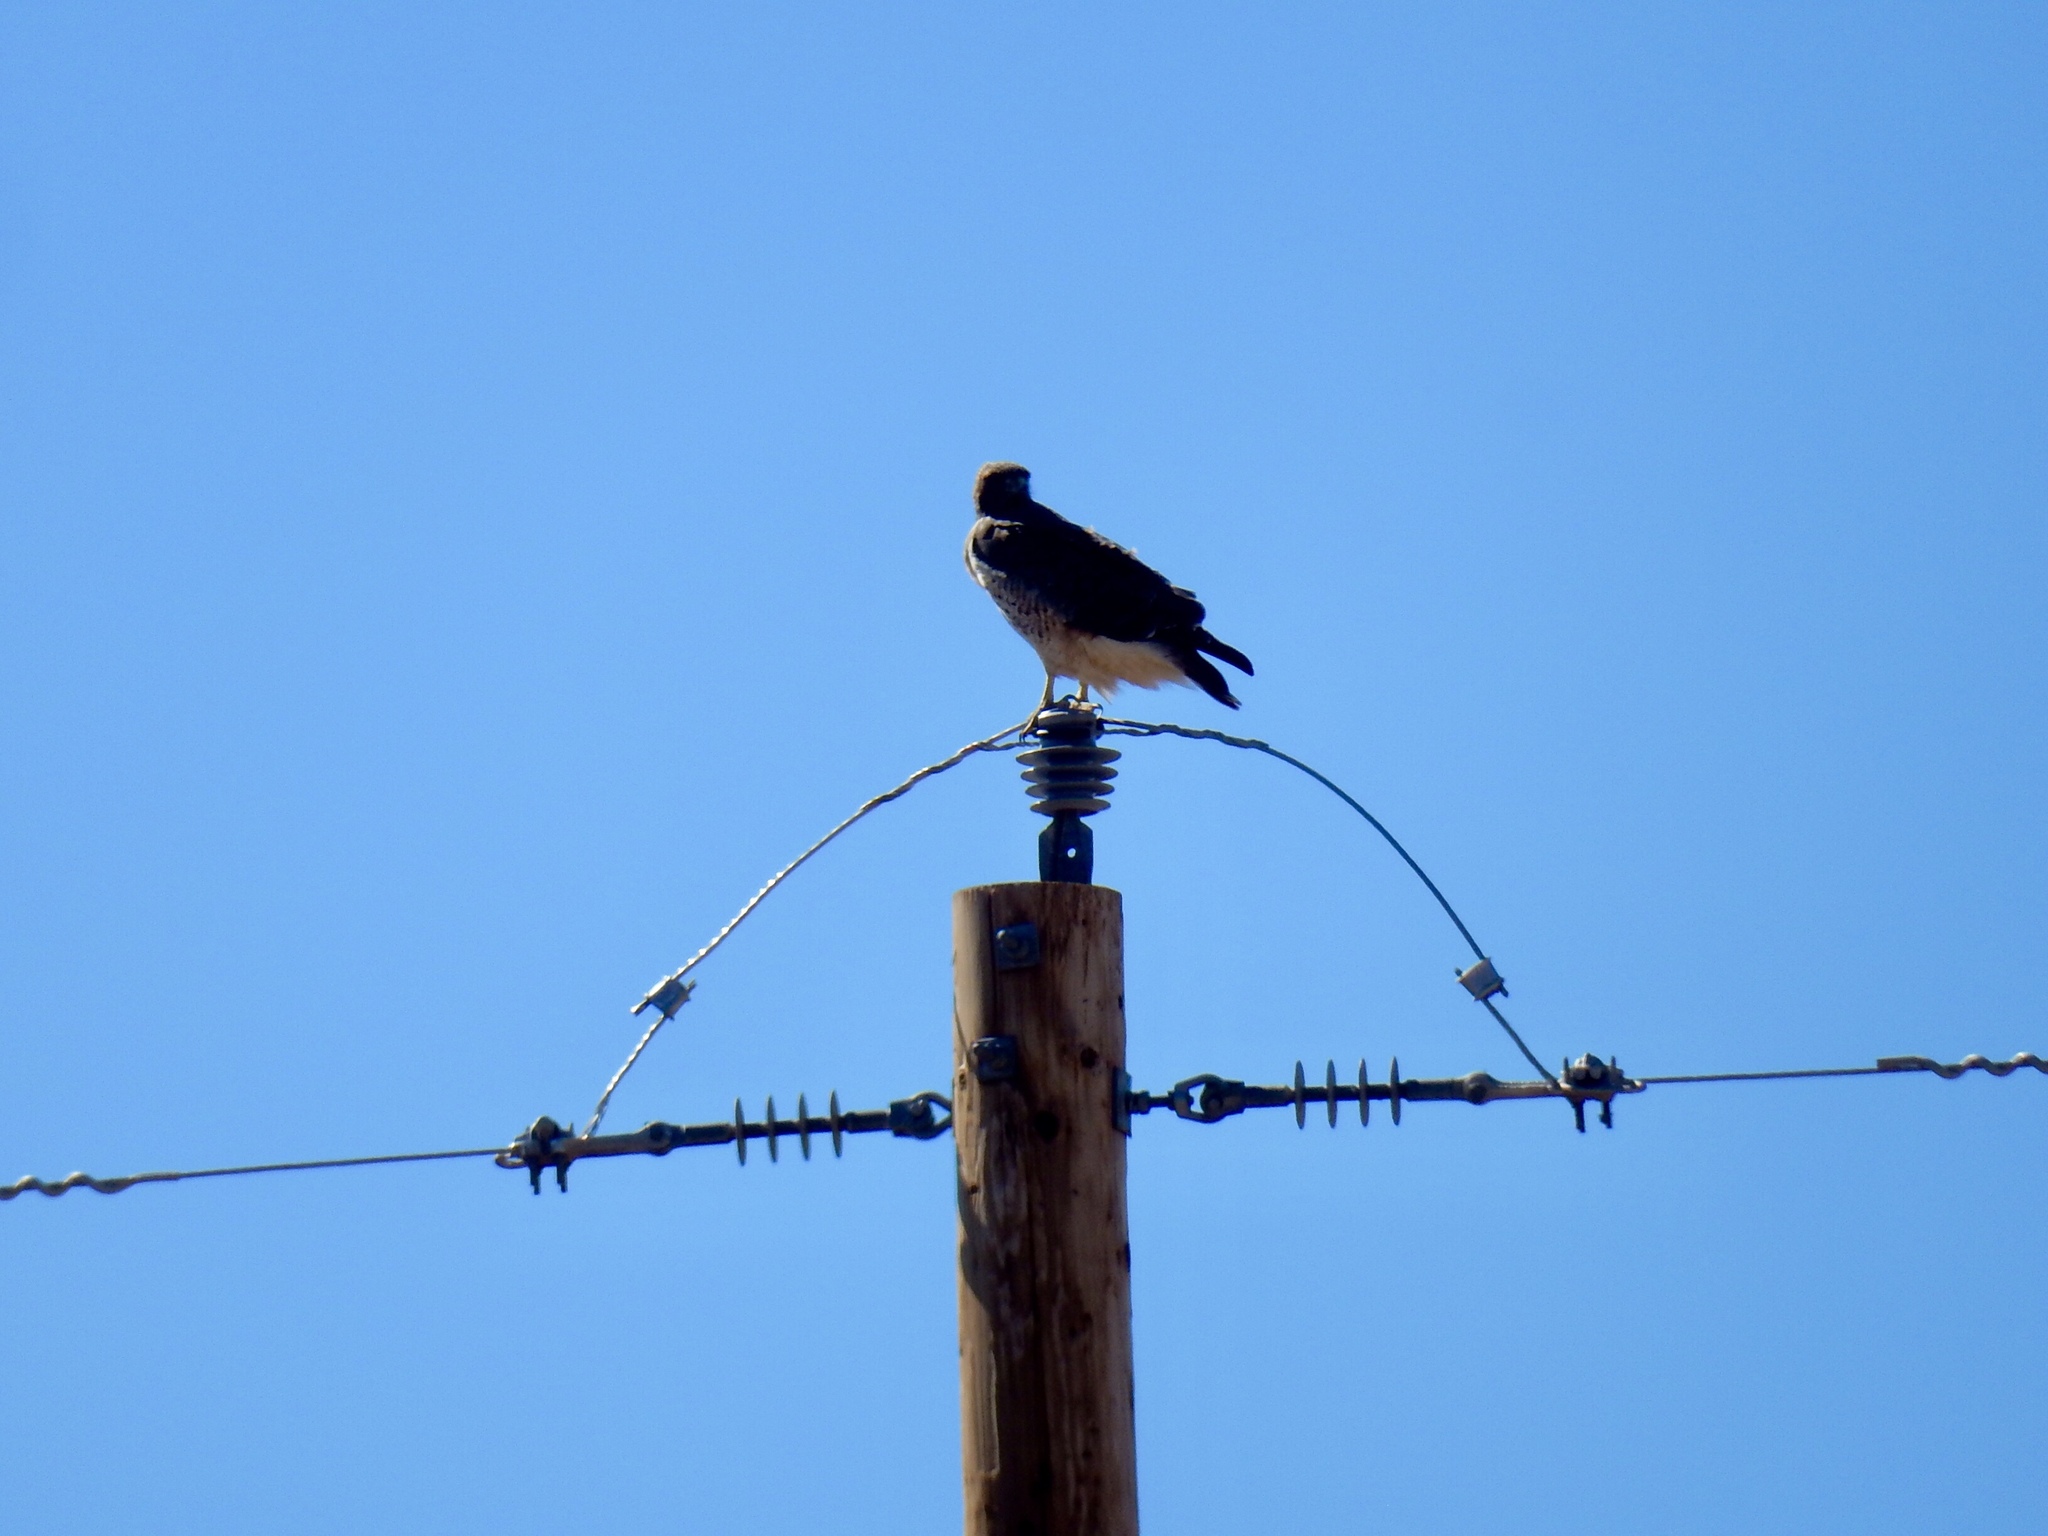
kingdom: Animalia
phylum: Chordata
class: Aves
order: Accipitriformes
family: Accipitridae
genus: Buteo
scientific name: Buteo jamaicensis
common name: Red-tailed hawk
